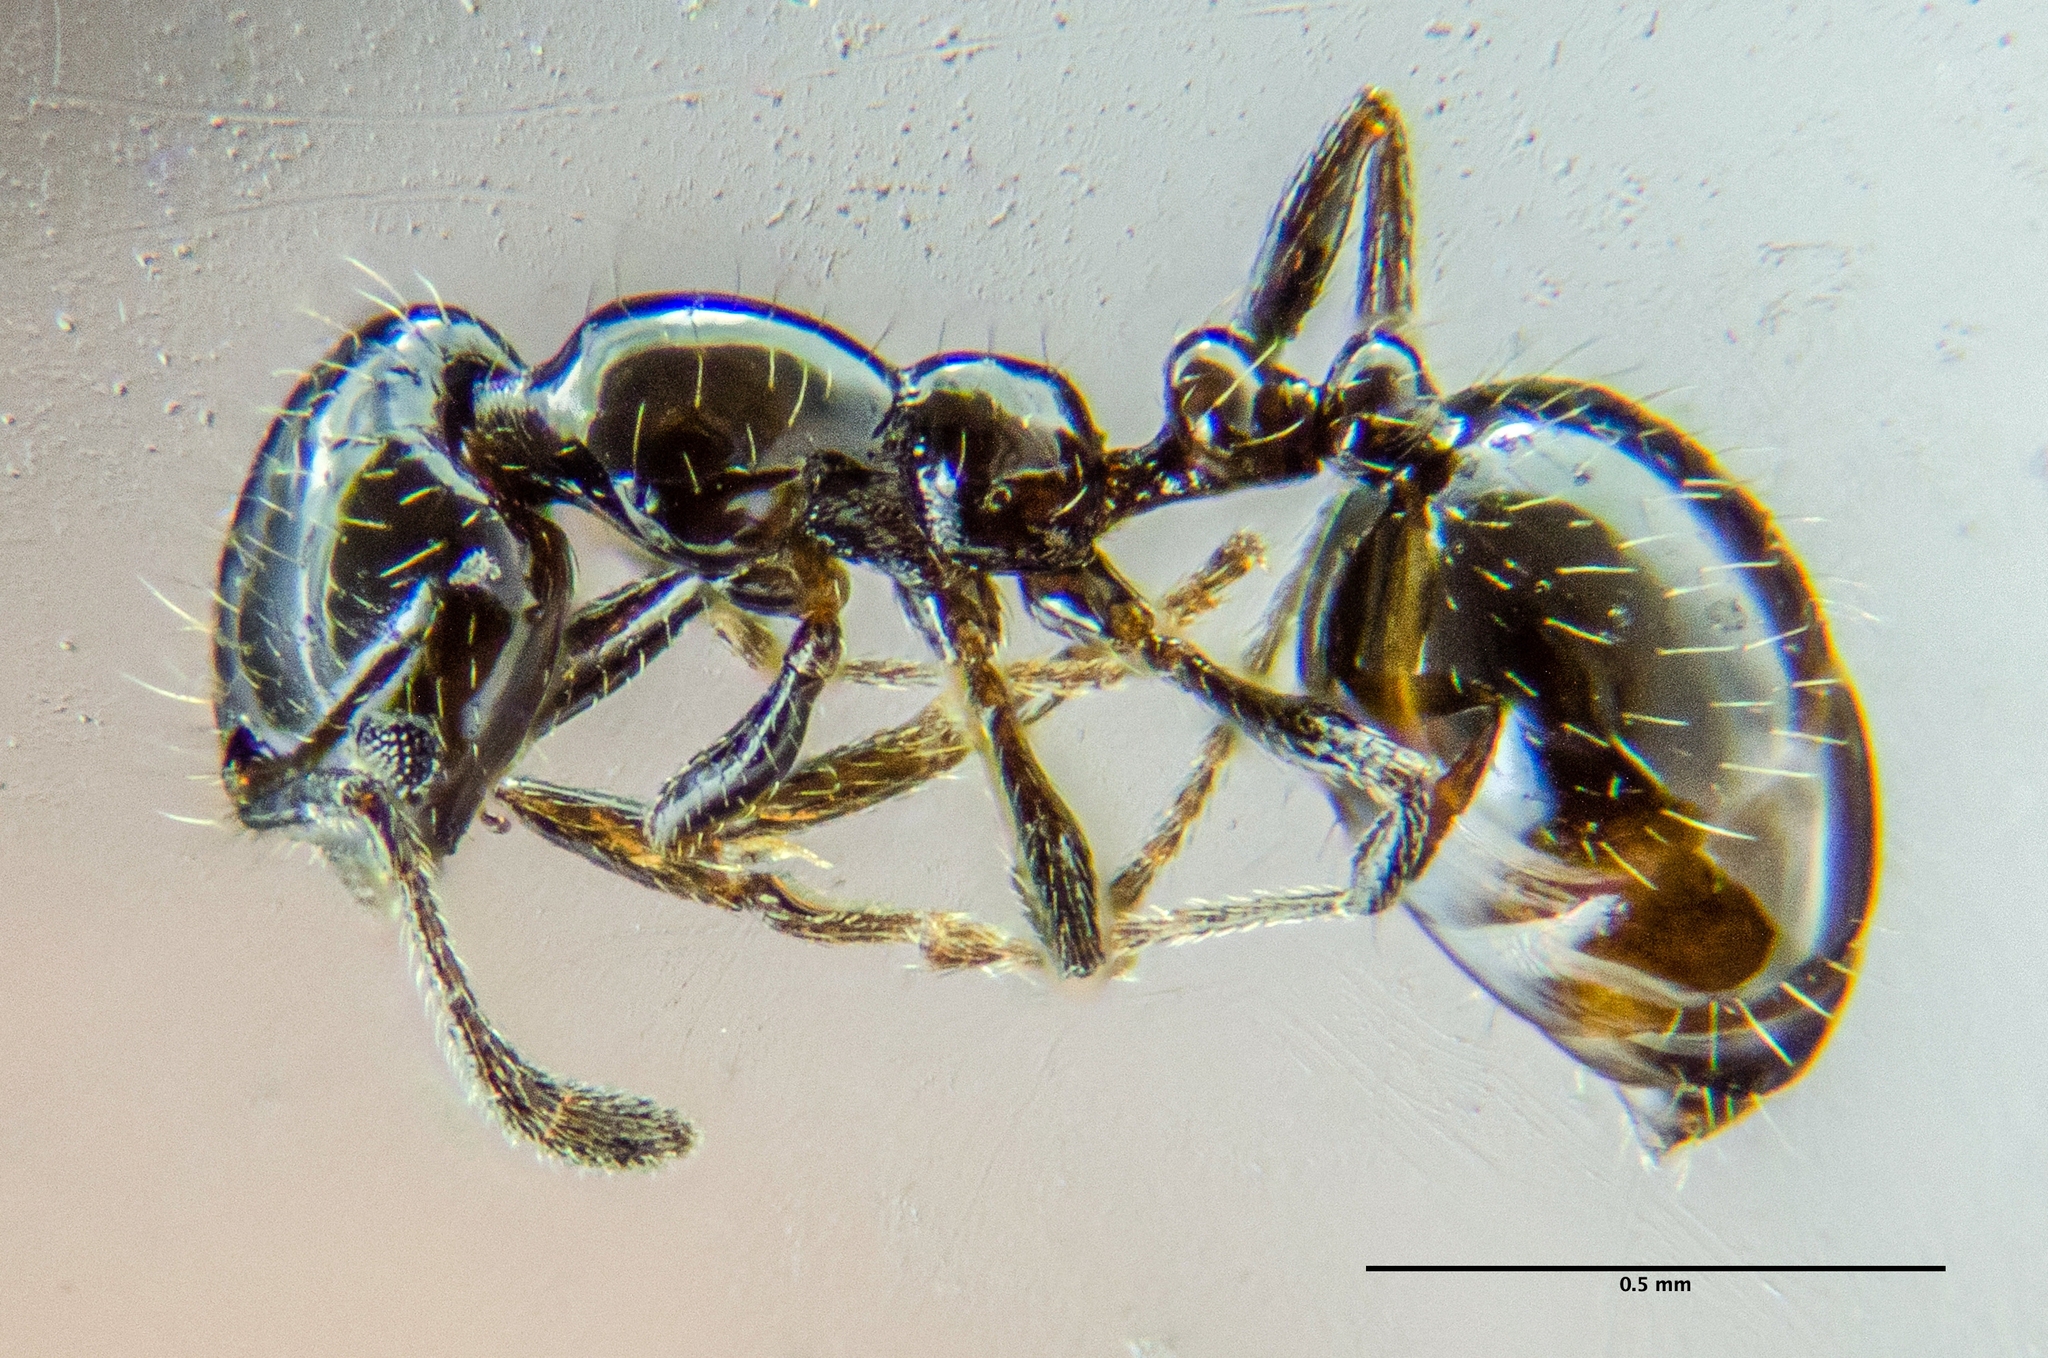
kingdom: Animalia
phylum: Arthropoda
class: Insecta
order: Hymenoptera
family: Formicidae
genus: Monomorium
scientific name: Monomorium ergatogyna
